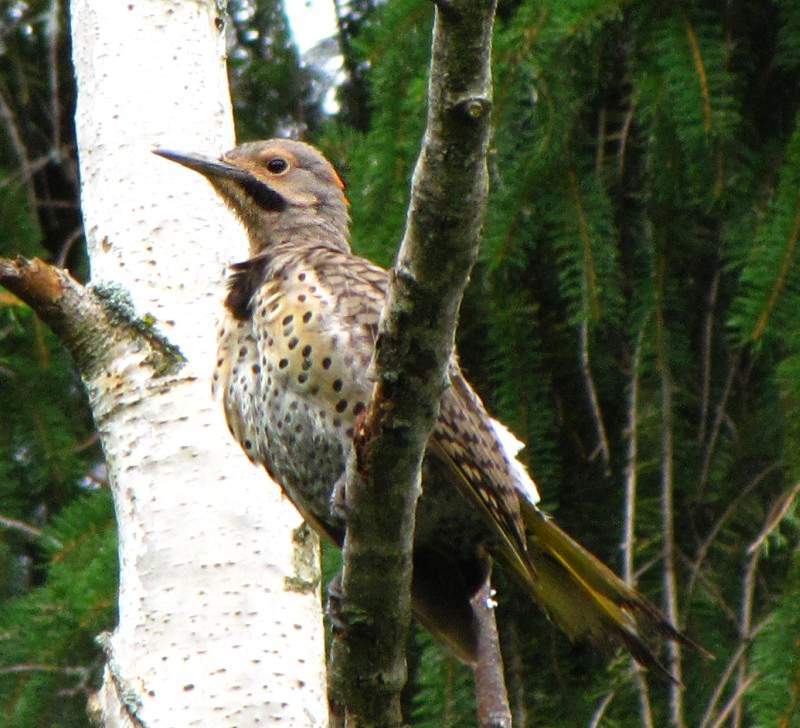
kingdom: Animalia
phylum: Chordata
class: Aves
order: Piciformes
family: Picidae
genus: Colaptes
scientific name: Colaptes auratus
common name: Northern flicker
